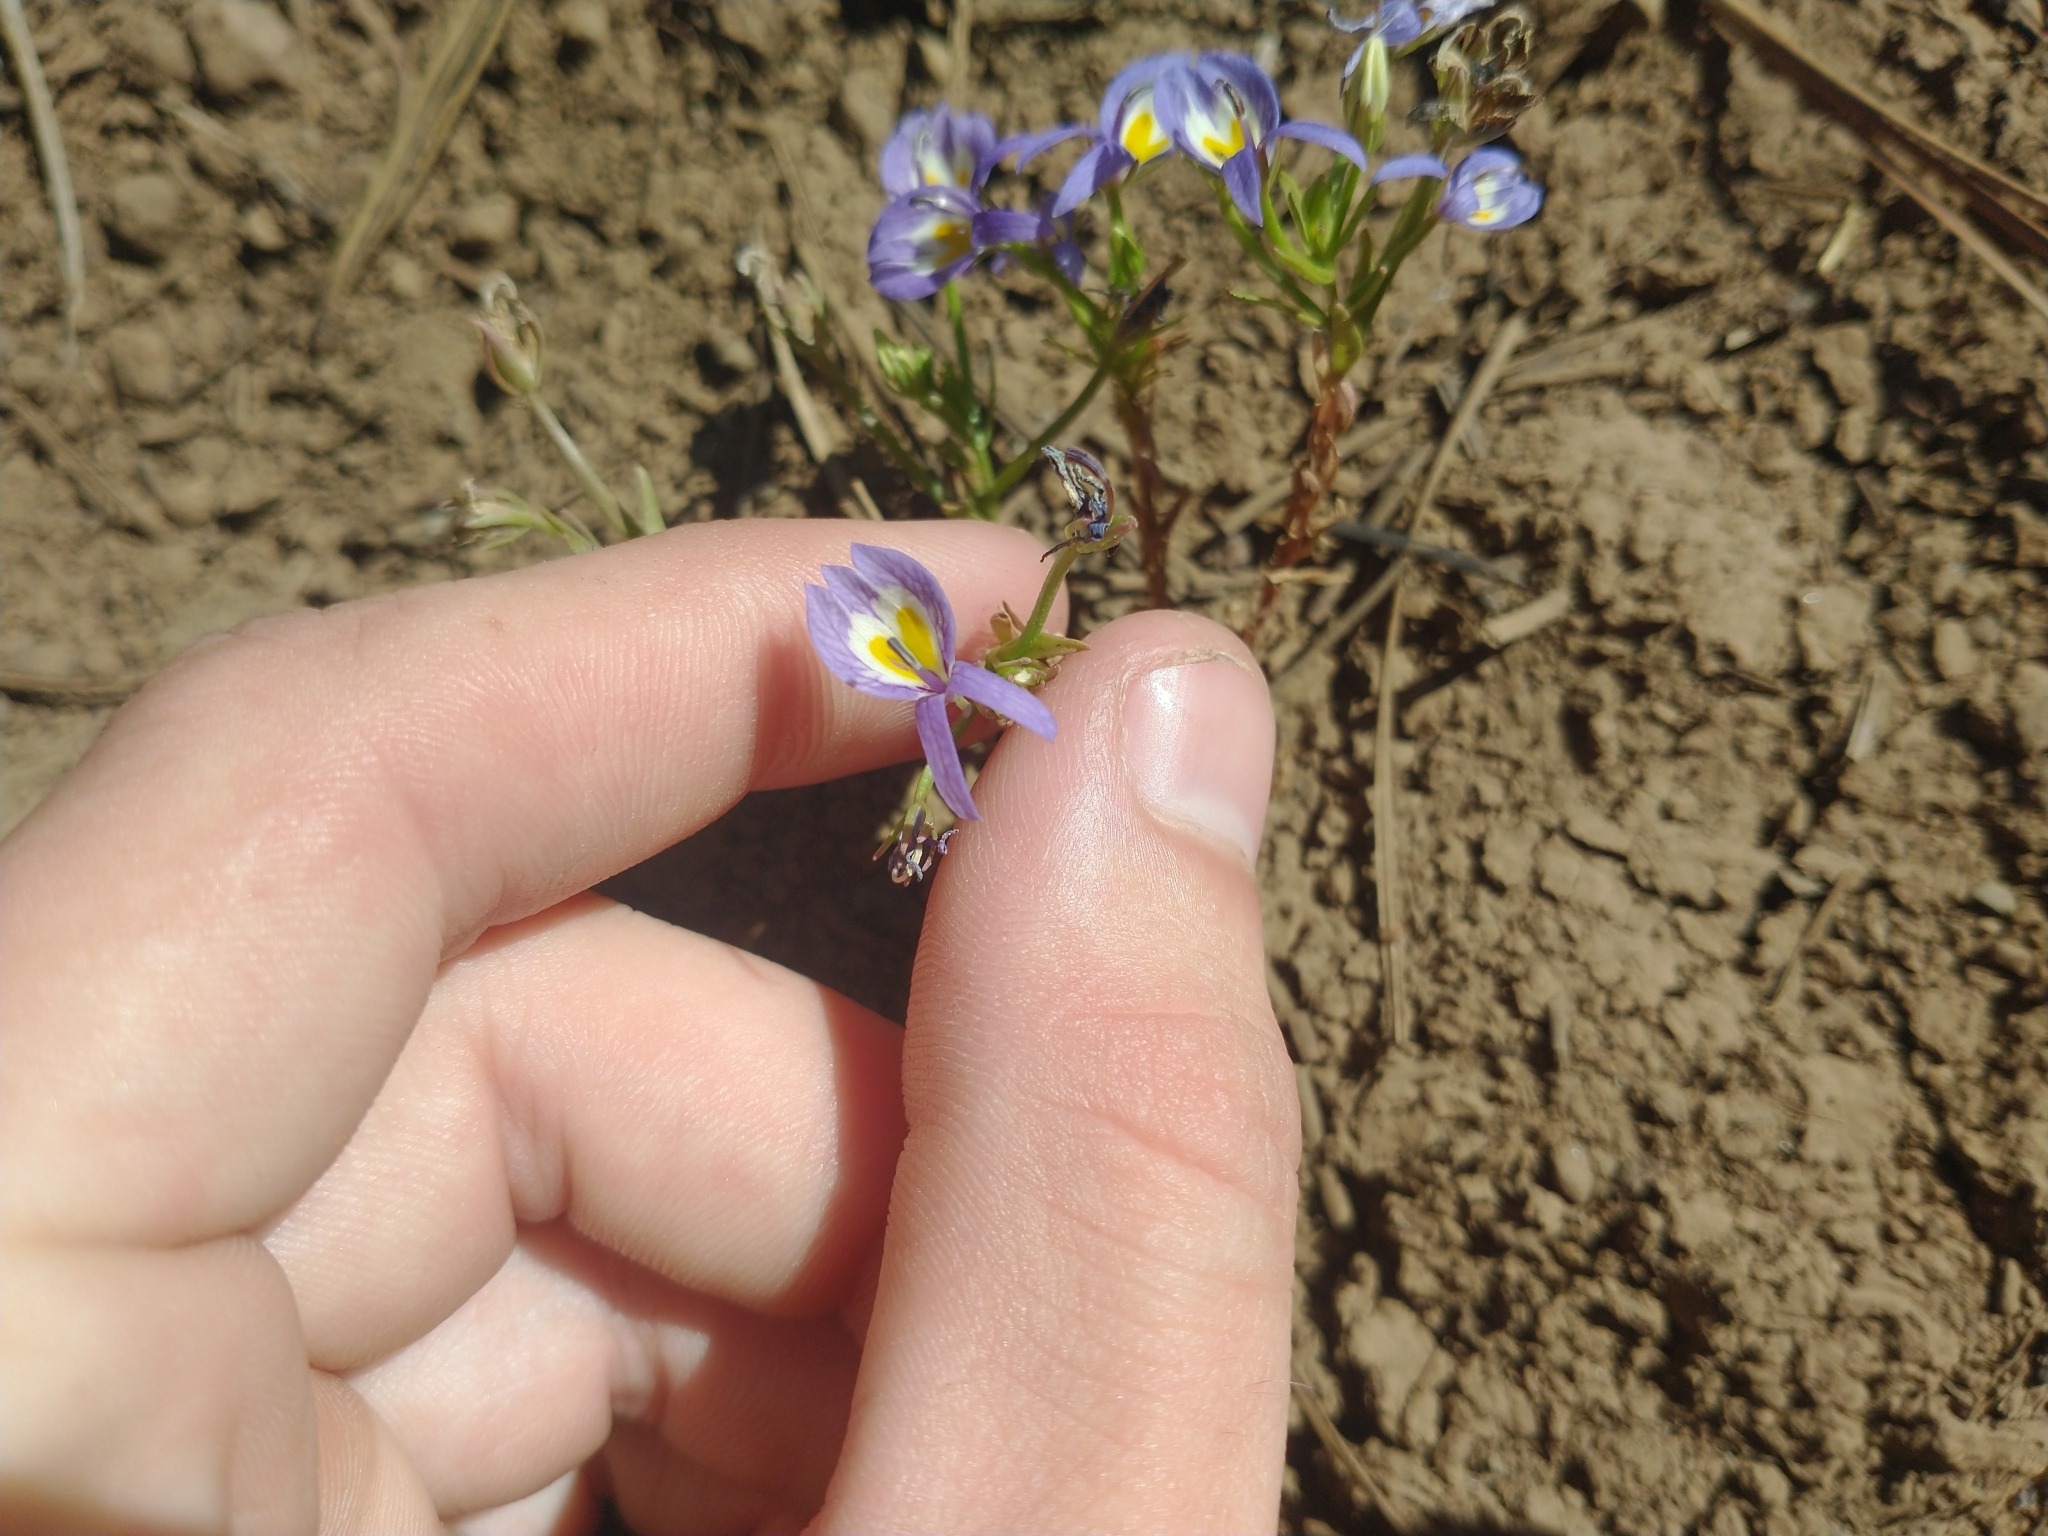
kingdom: Plantae
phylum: Tracheophyta
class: Magnoliopsida
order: Asterales
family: Campanulaceae
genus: Downingia
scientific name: Downingia bacigalupii
